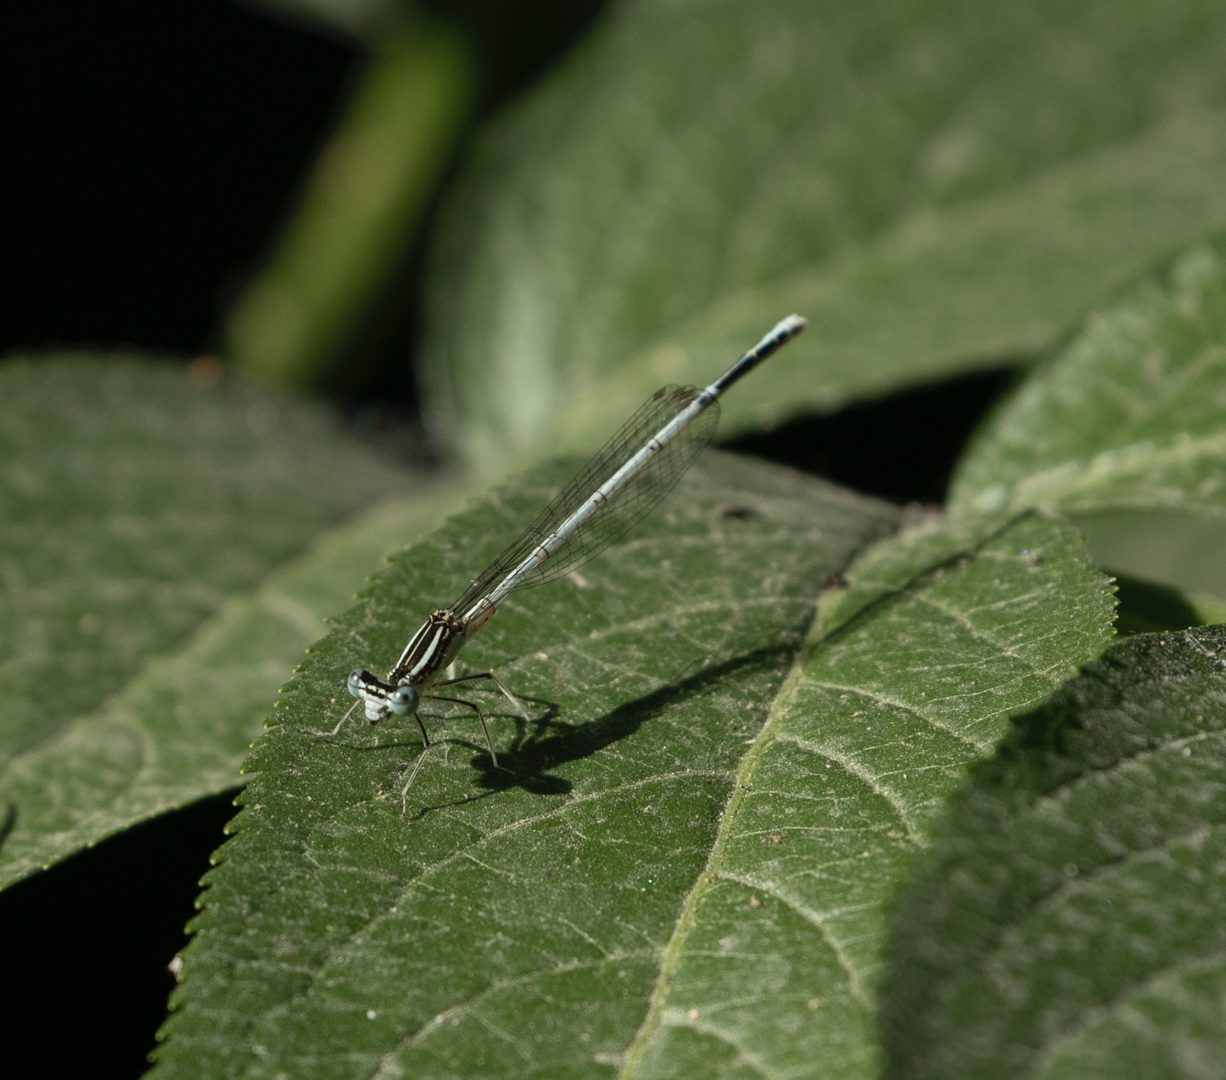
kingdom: Animalia
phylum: Arthropoda
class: Insecta
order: Odonata
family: Platycnemididae
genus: Platycnemis
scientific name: Platycnemis pennipes
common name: White-legged damselfly
